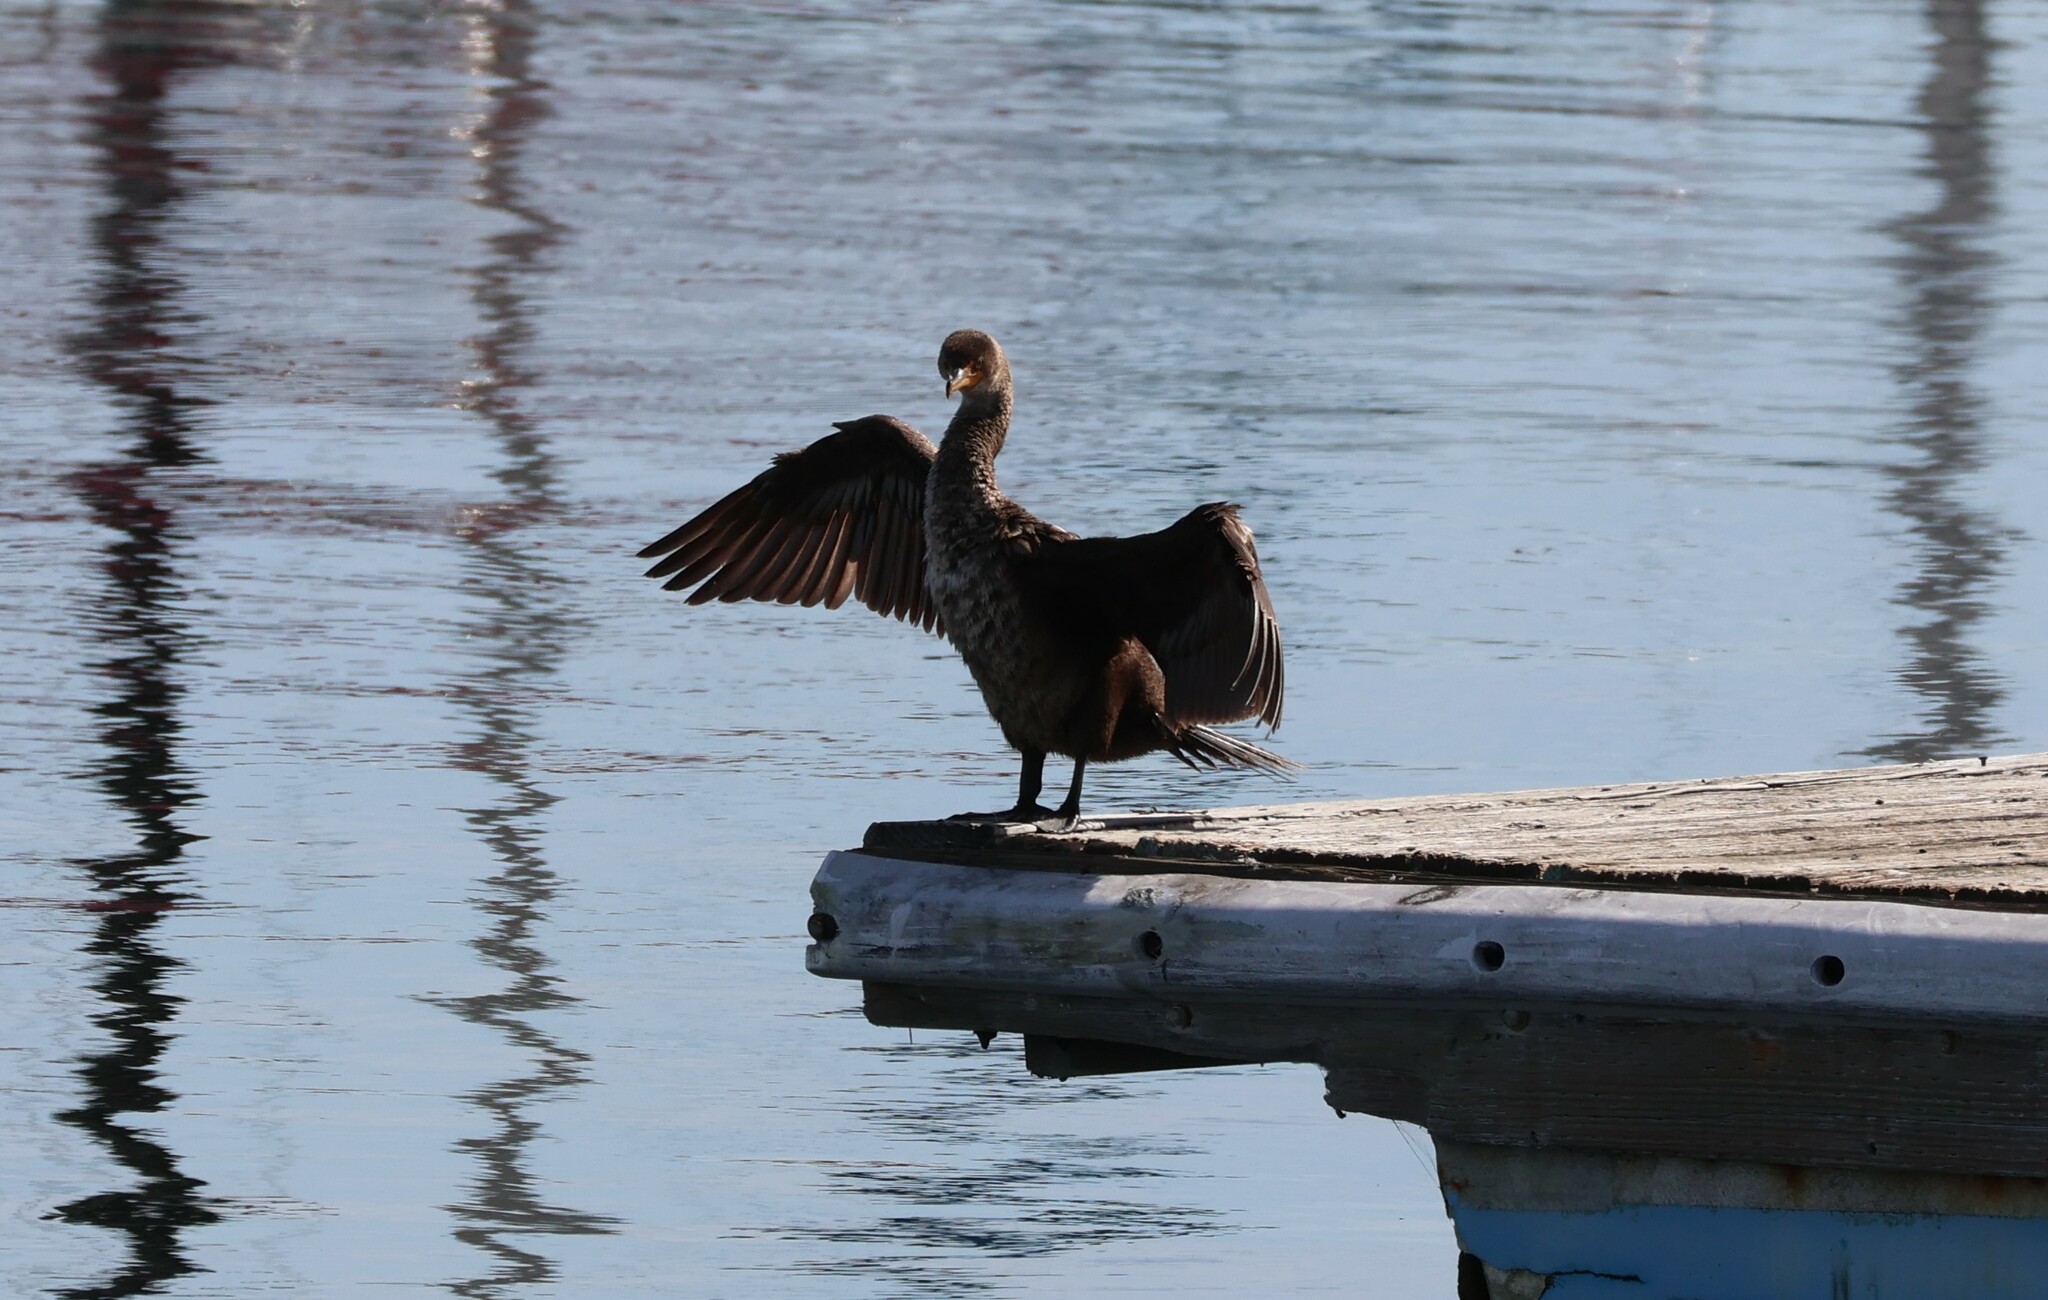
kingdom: Animalia
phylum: Chordata
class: Aves
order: Suliformes
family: Phalacrocoracidae
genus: Phalacrocorax
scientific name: Phalacrocorax auritus
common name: Double-crested cormorant
